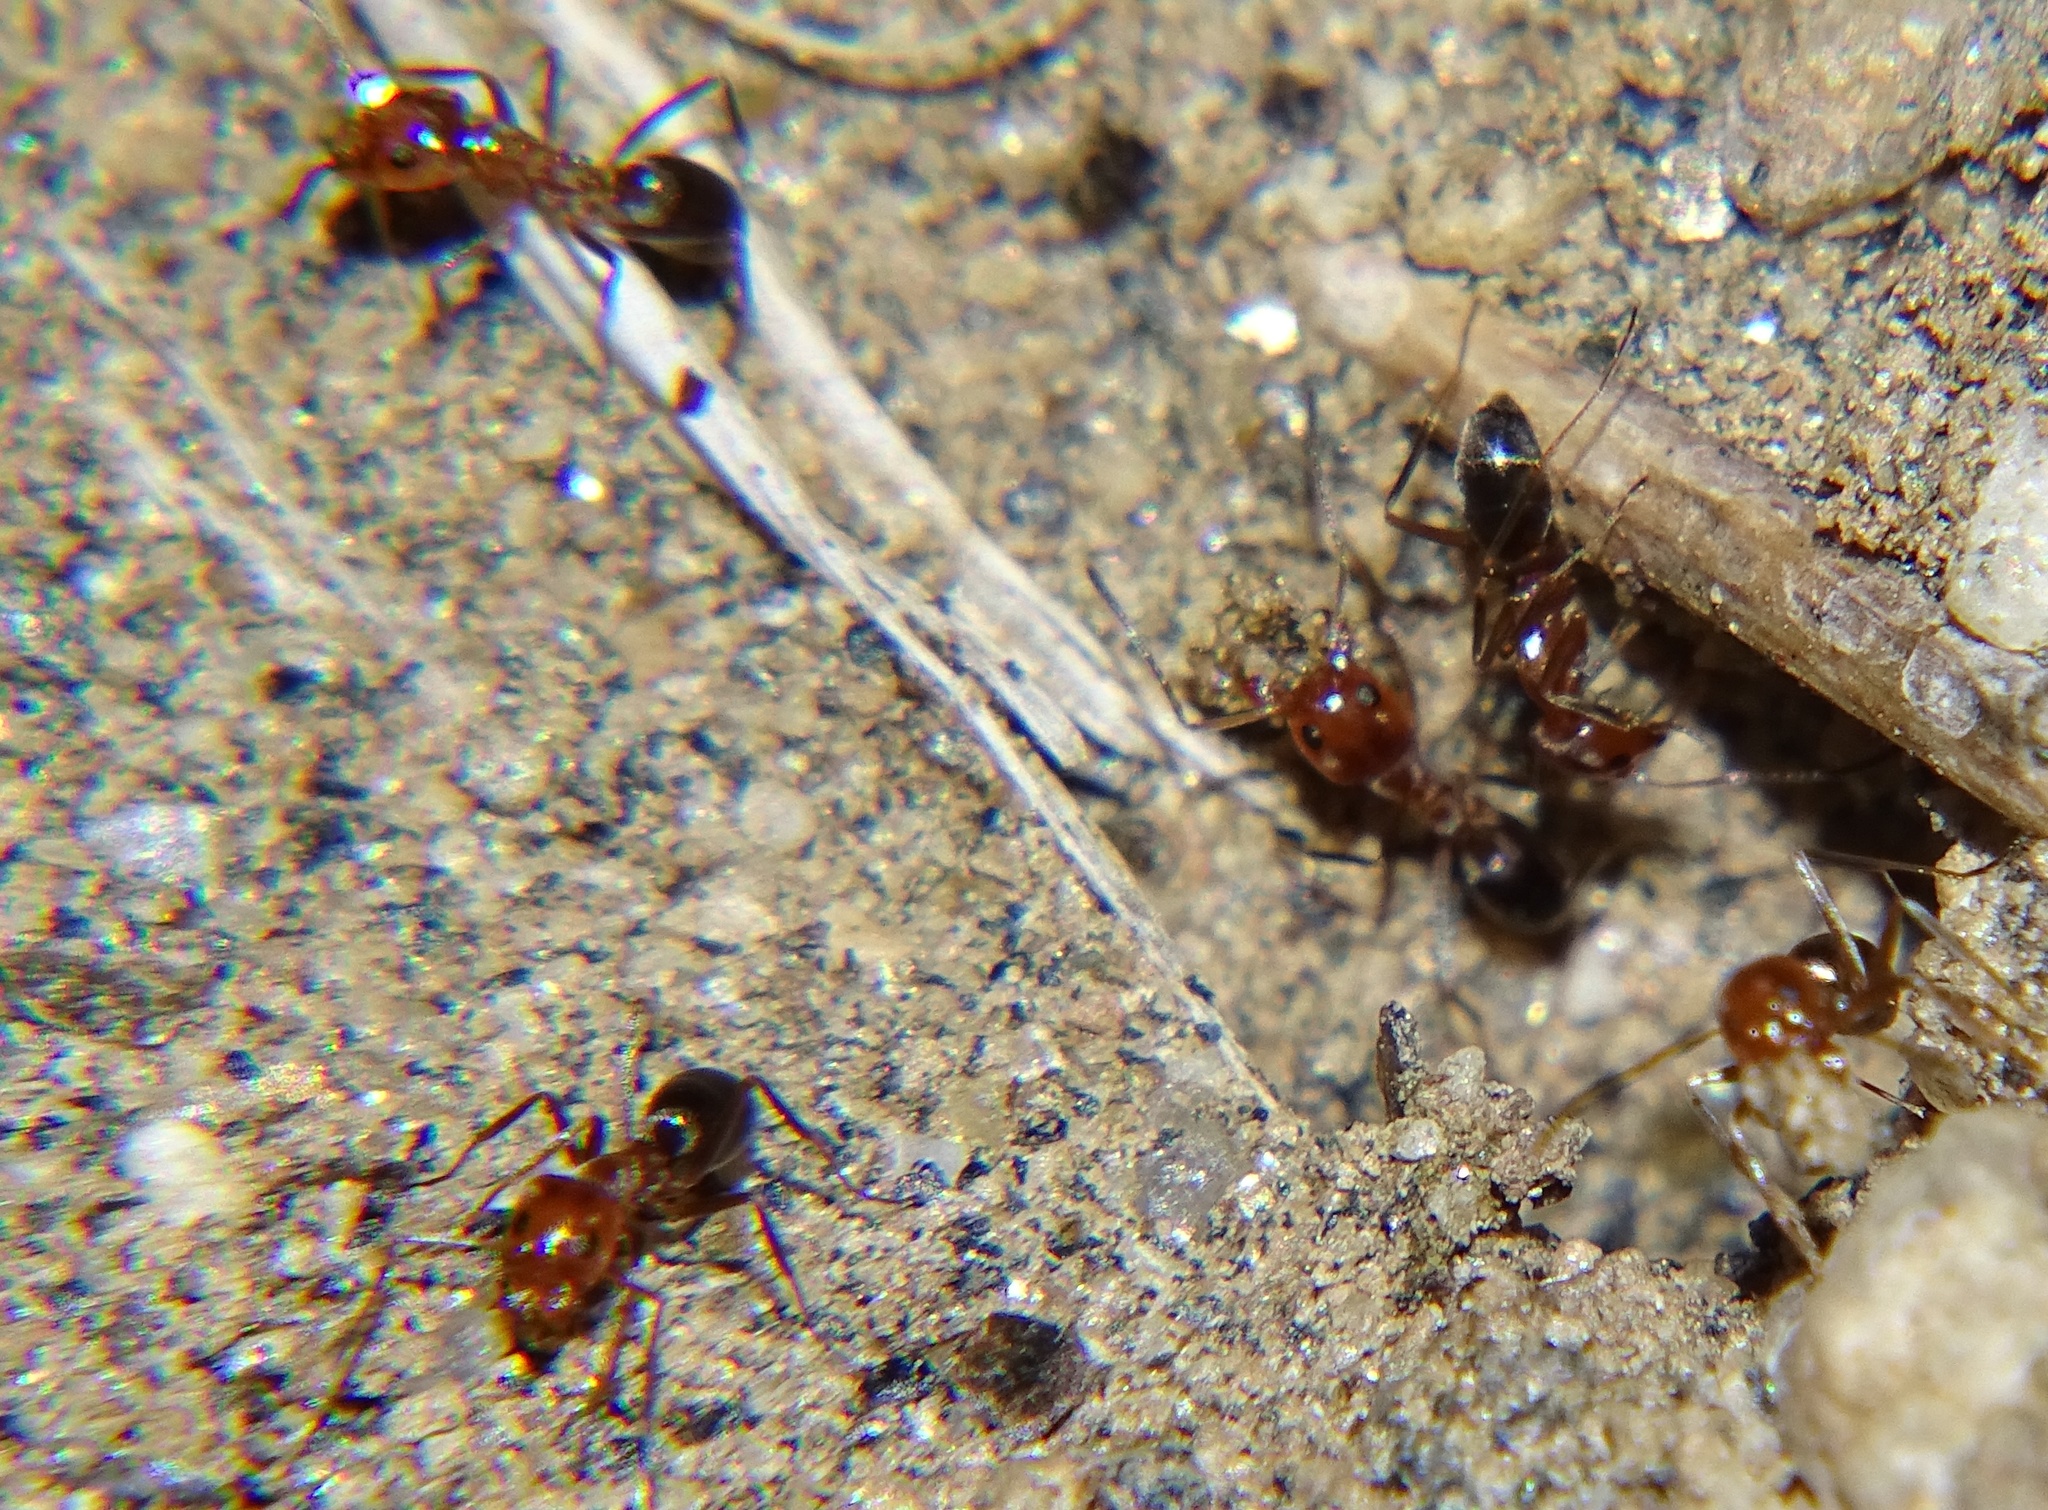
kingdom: Animalia
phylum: Arthropoda
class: Insecta
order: Hymenoptera
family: Formicidae
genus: Dorymyrmex
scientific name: Dorymyrmex bicolor
